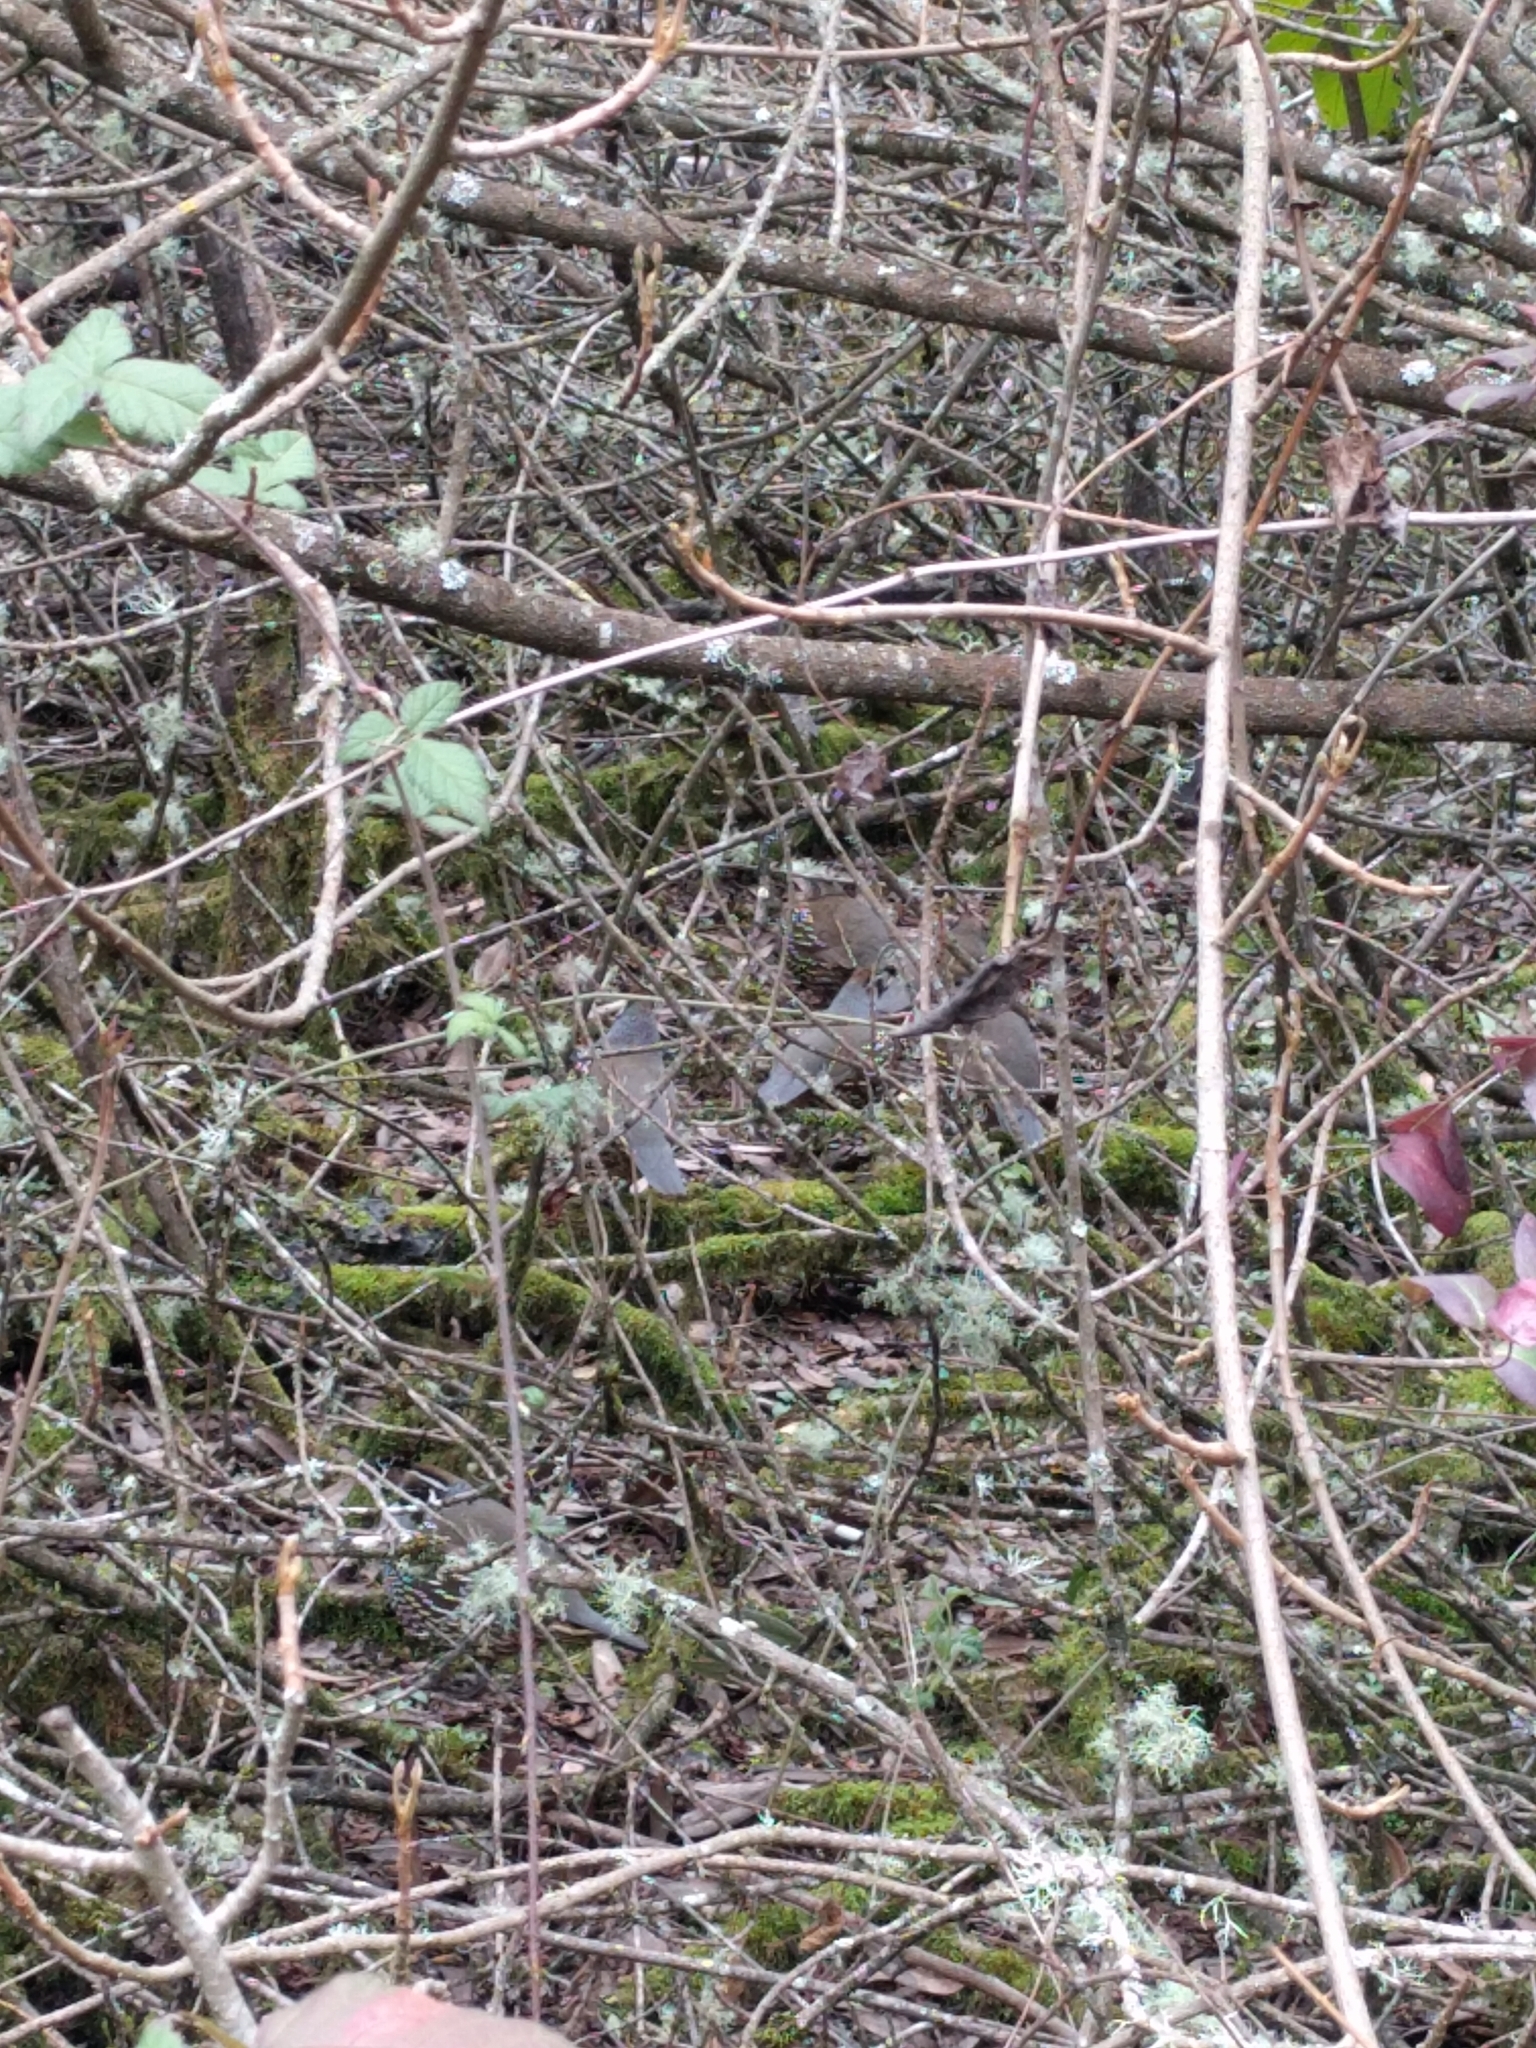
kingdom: Animalia
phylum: Chordata
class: Aves
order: Galliformes
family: Odontophoridae
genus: Callipepla
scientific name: Callipepla californica
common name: California quail
